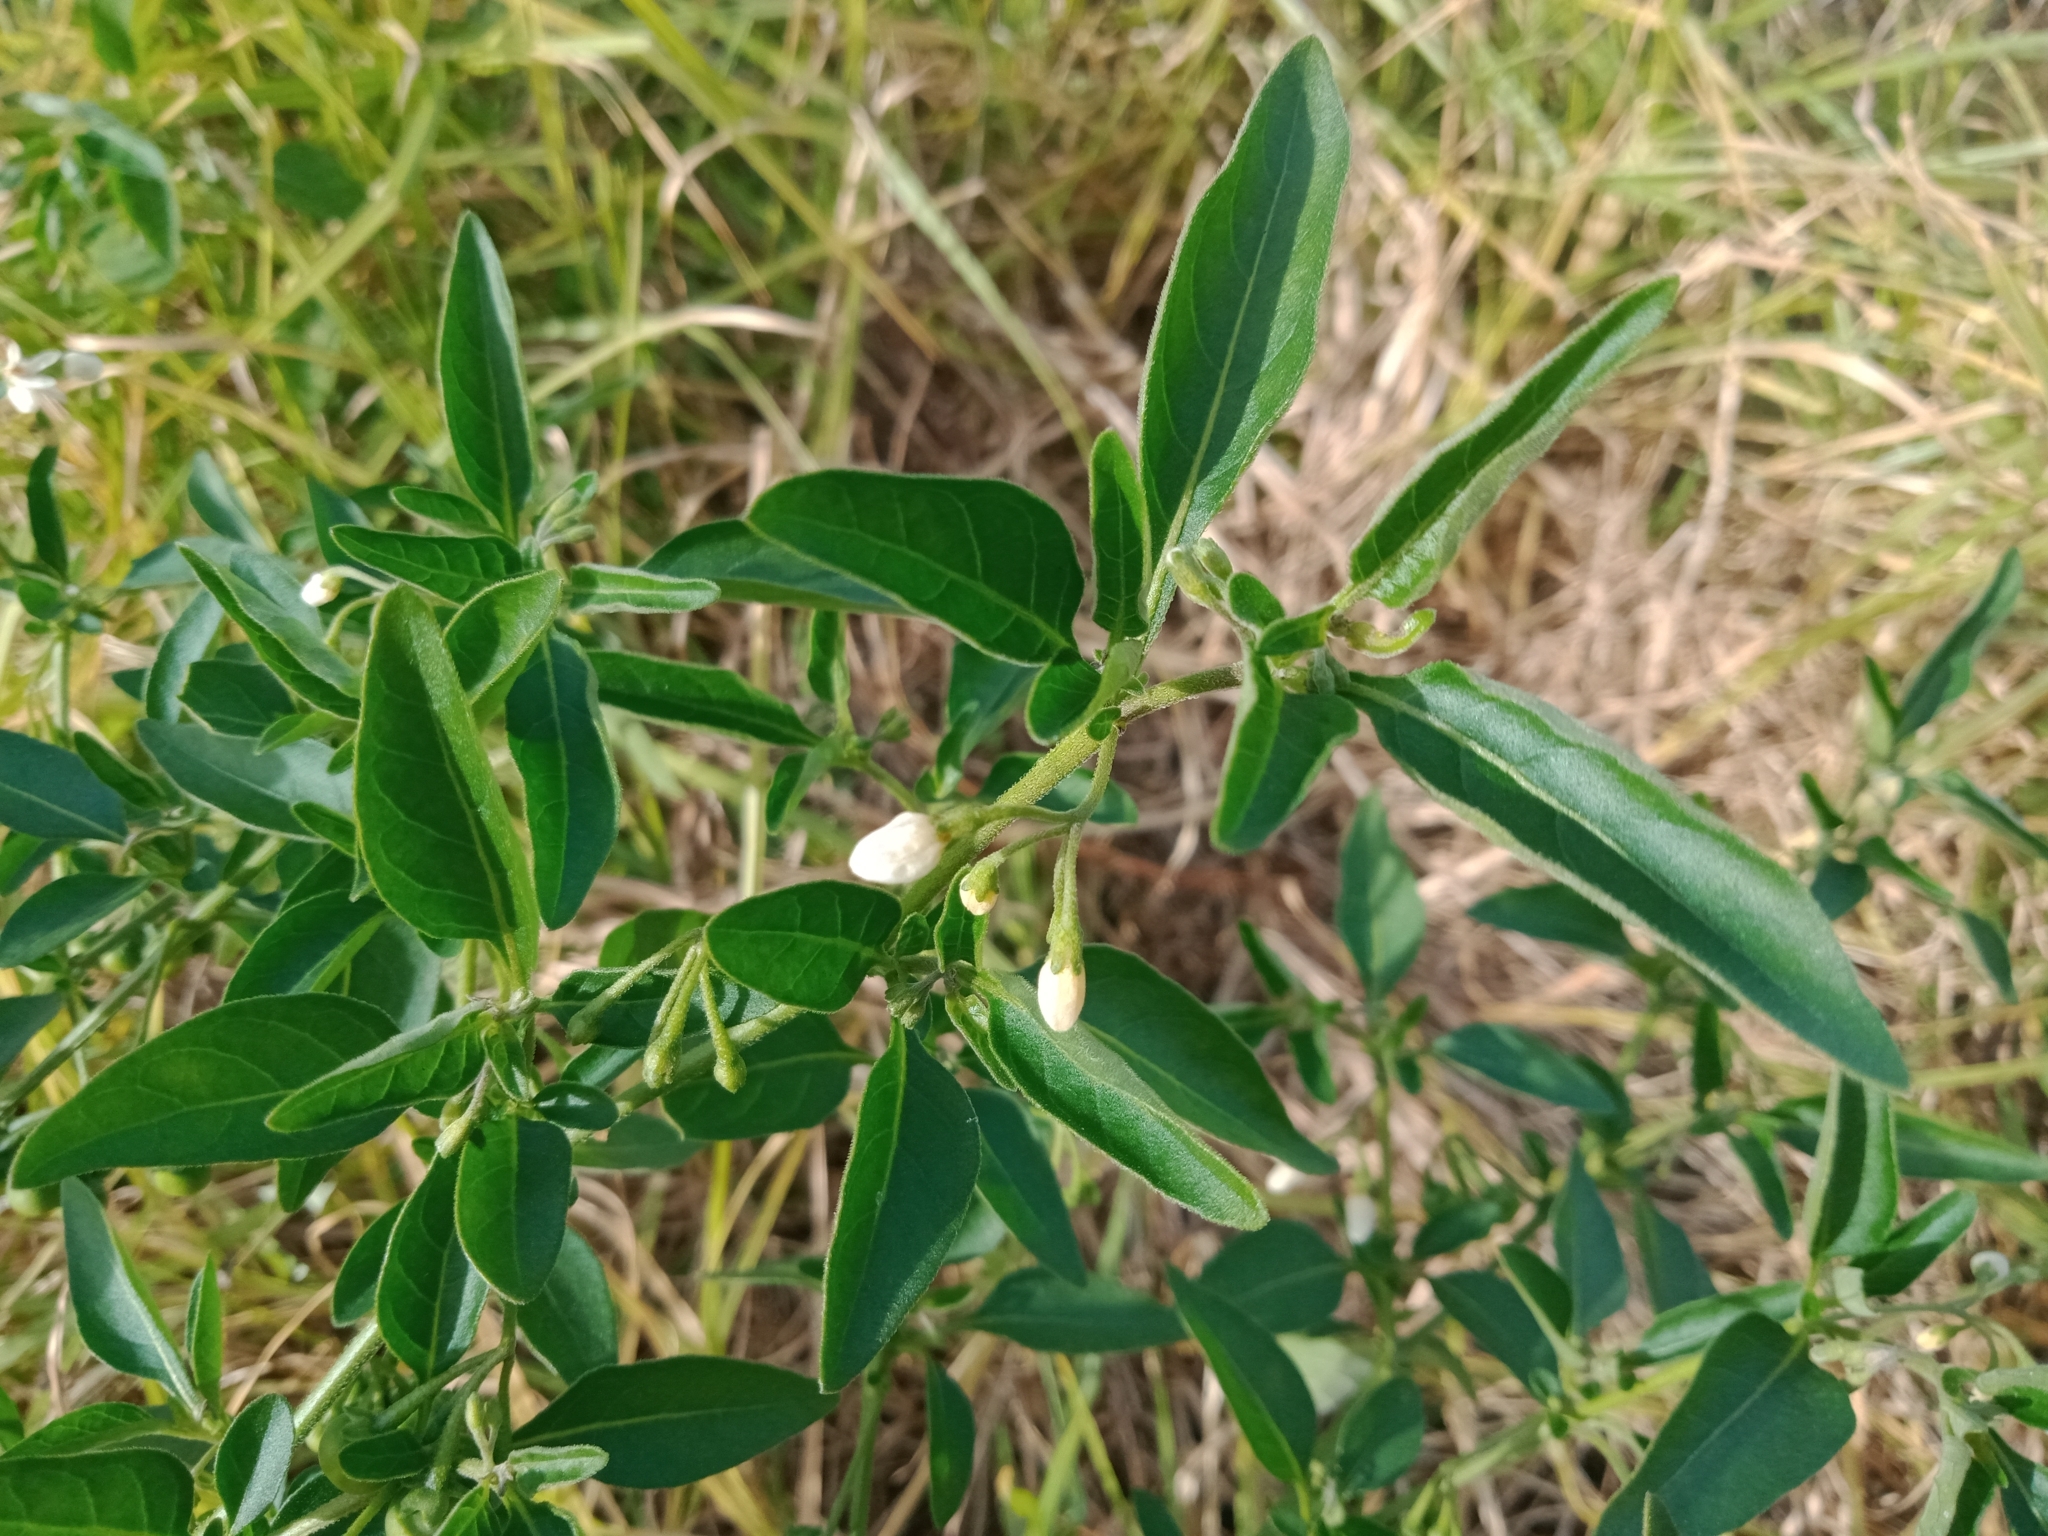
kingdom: Plantae
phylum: Tracheophyta
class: Magnoliopsida
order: Solanales
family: Solanaceae
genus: Solanum
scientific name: Solanum chenopodioides
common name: Tall nightshade
